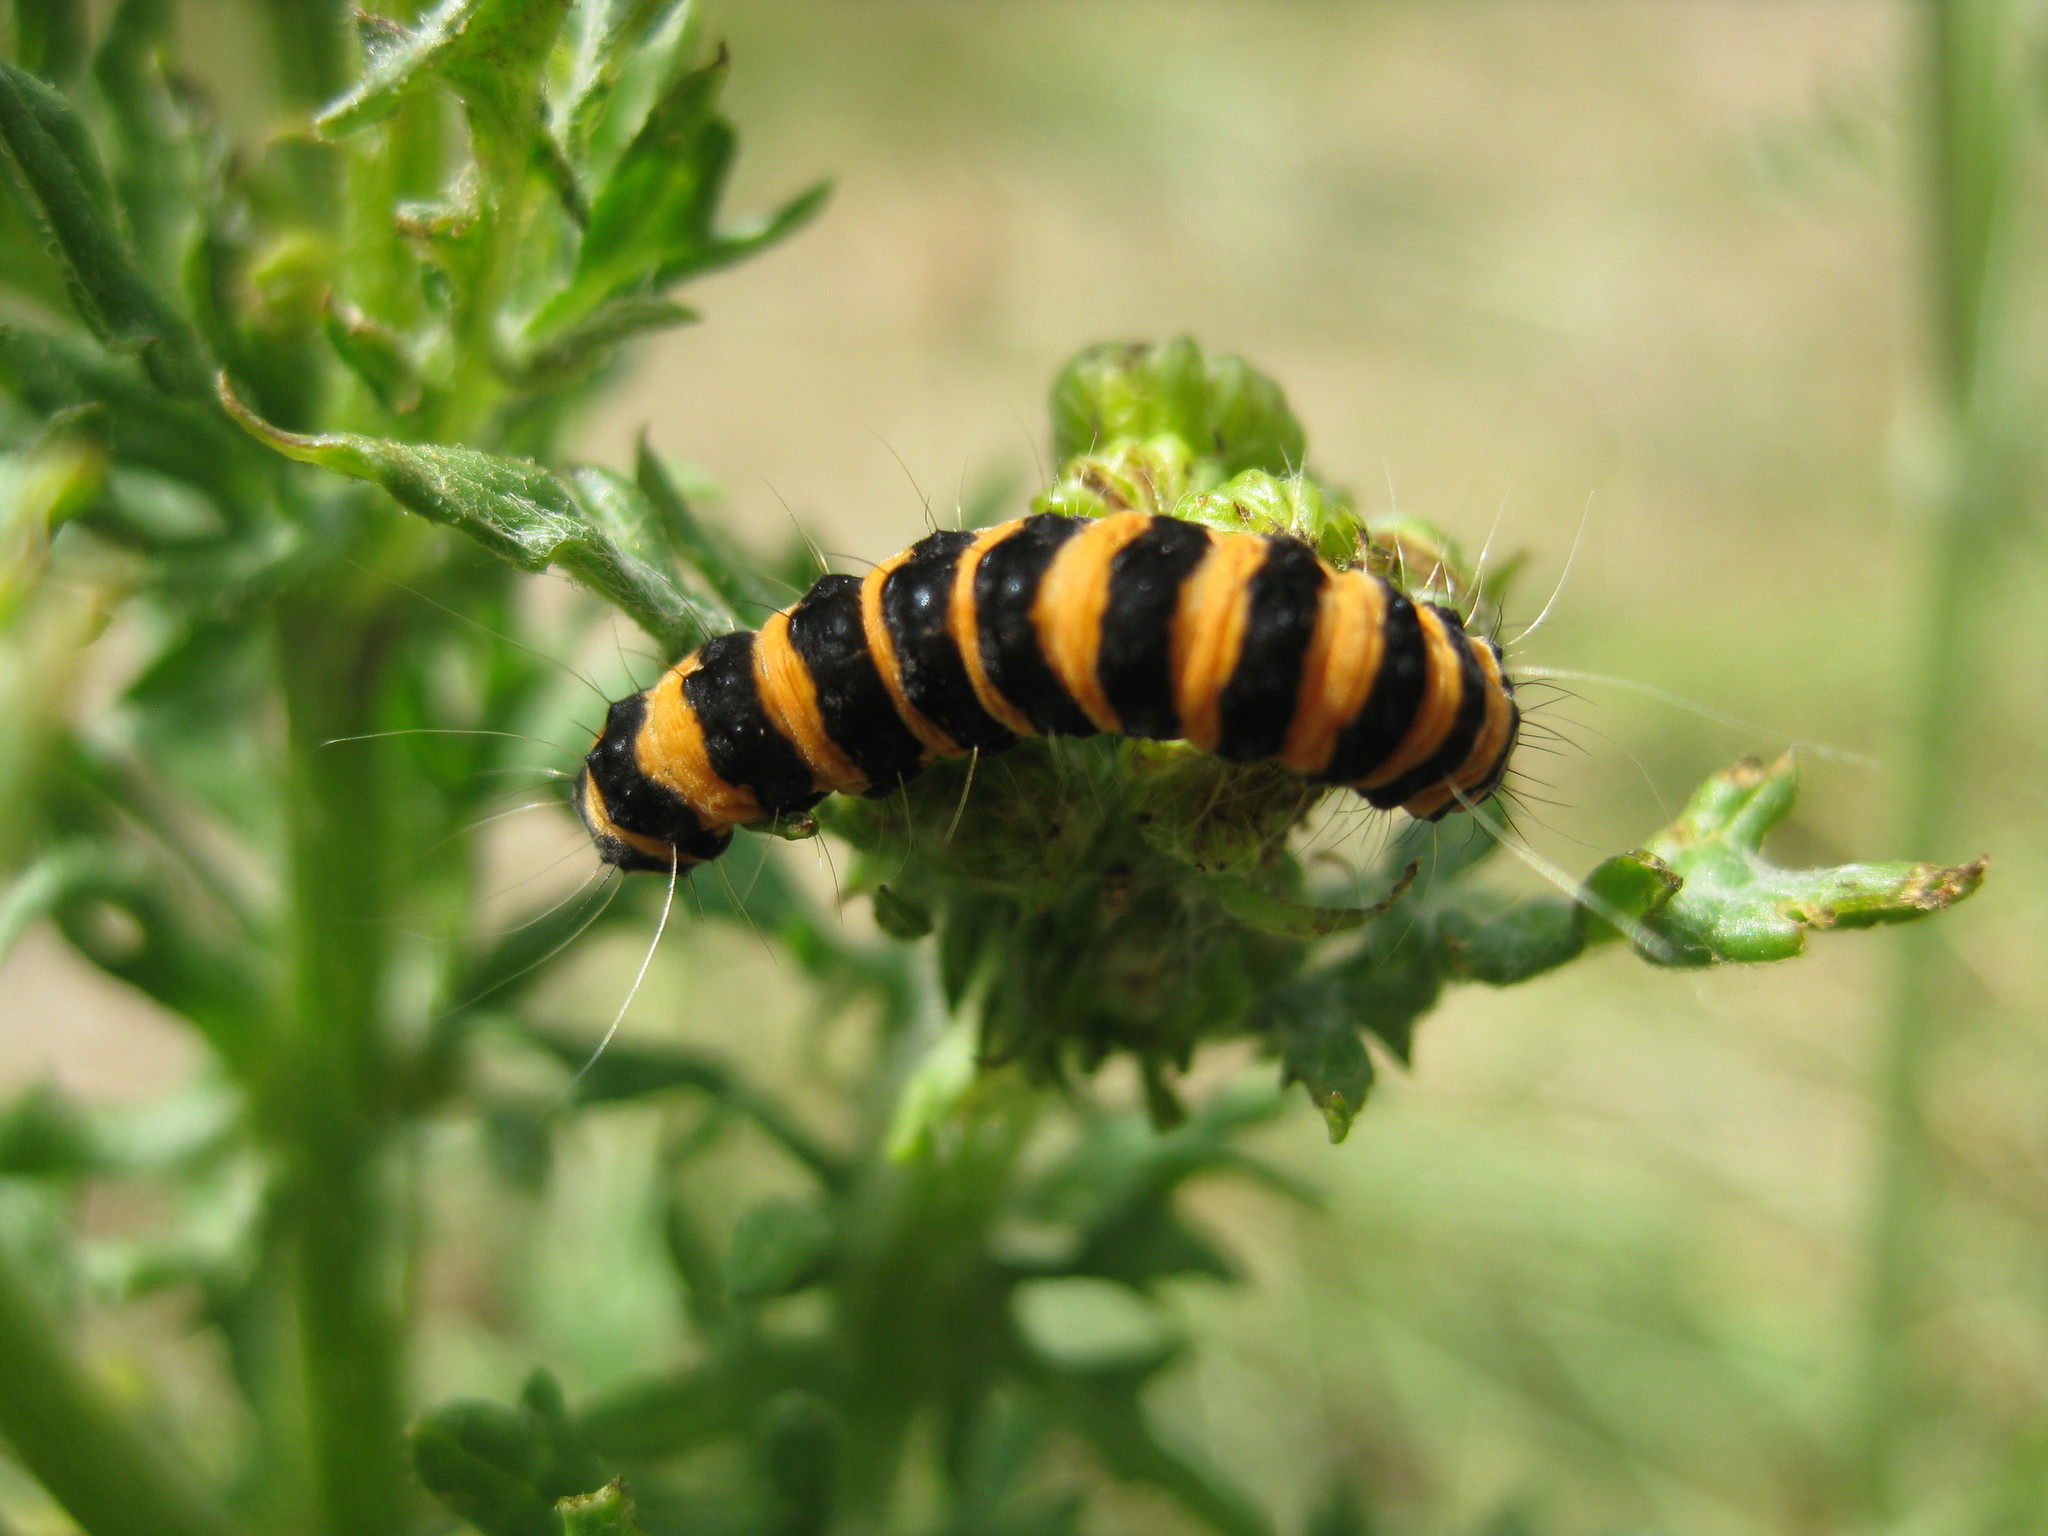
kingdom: Animalia
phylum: Arthropoda
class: Insecta
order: Lepidoptera
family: Erebidae
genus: Tyria
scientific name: Tyria jacobaeae
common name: Cinnabar
